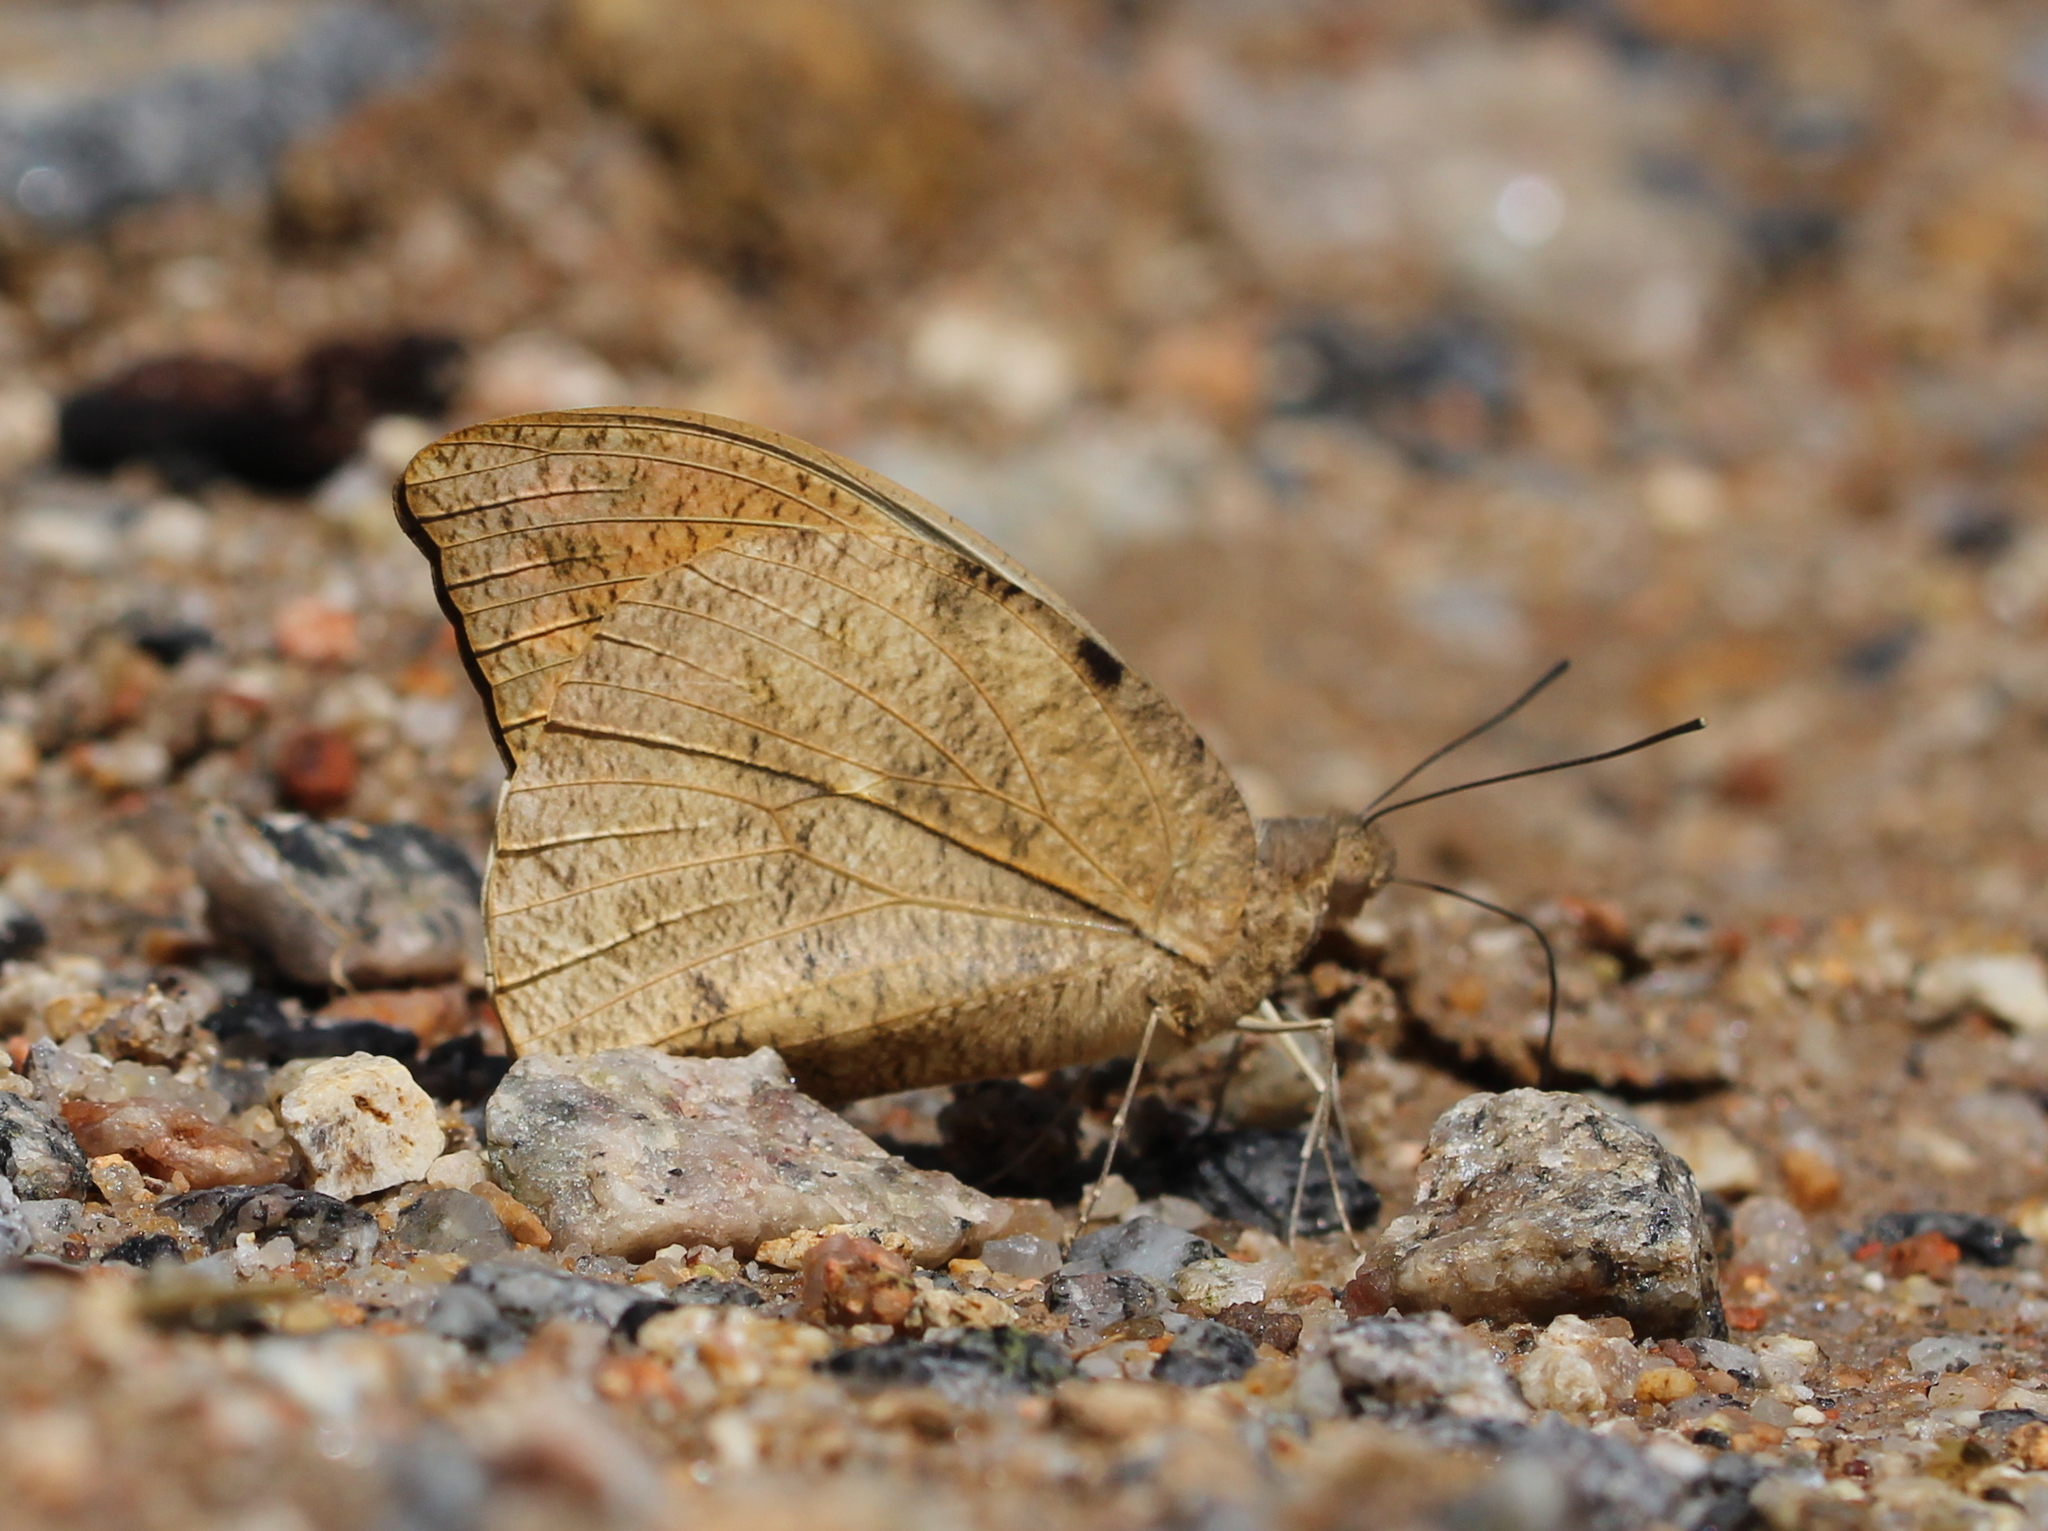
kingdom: Animalia
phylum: Arthropoda
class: Insecta
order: Lepidoptera
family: Pieridae
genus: Hebomoia
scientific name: Hebomoia glaucippe
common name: Great orange tip
